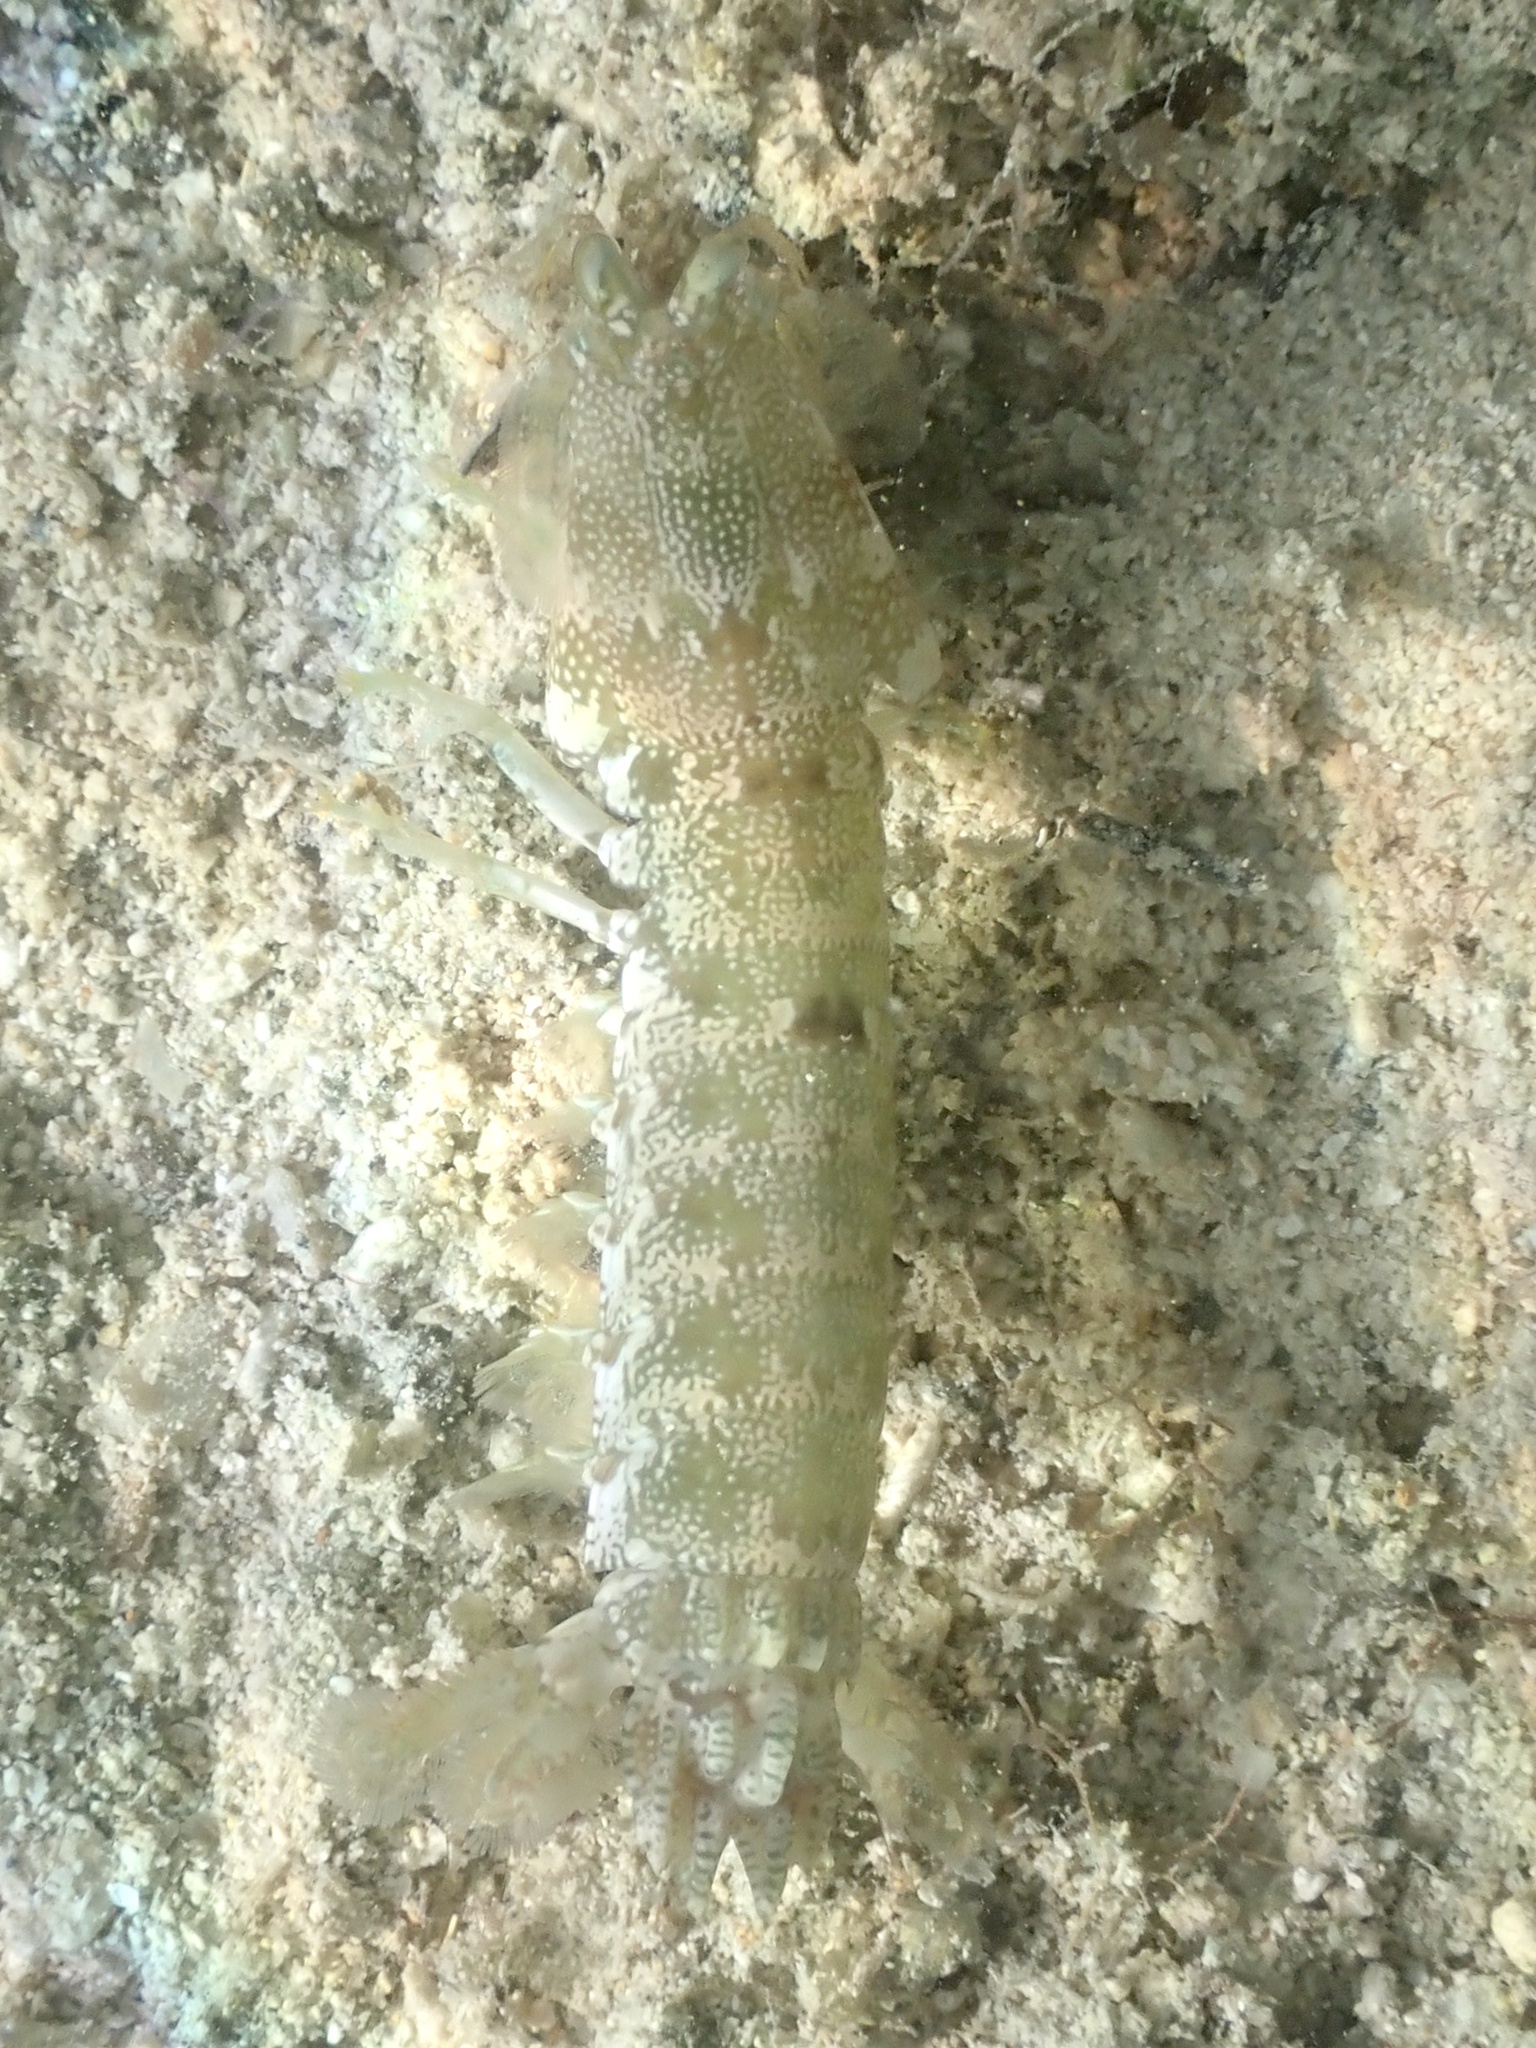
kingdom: Animalia
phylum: Arthropoda
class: Malacostraca
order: Stomatopoda
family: Gonodactylidae
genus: Neogonodactylus
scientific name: Neogonodactylus oerstedii
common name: Swollen-claw squilla
